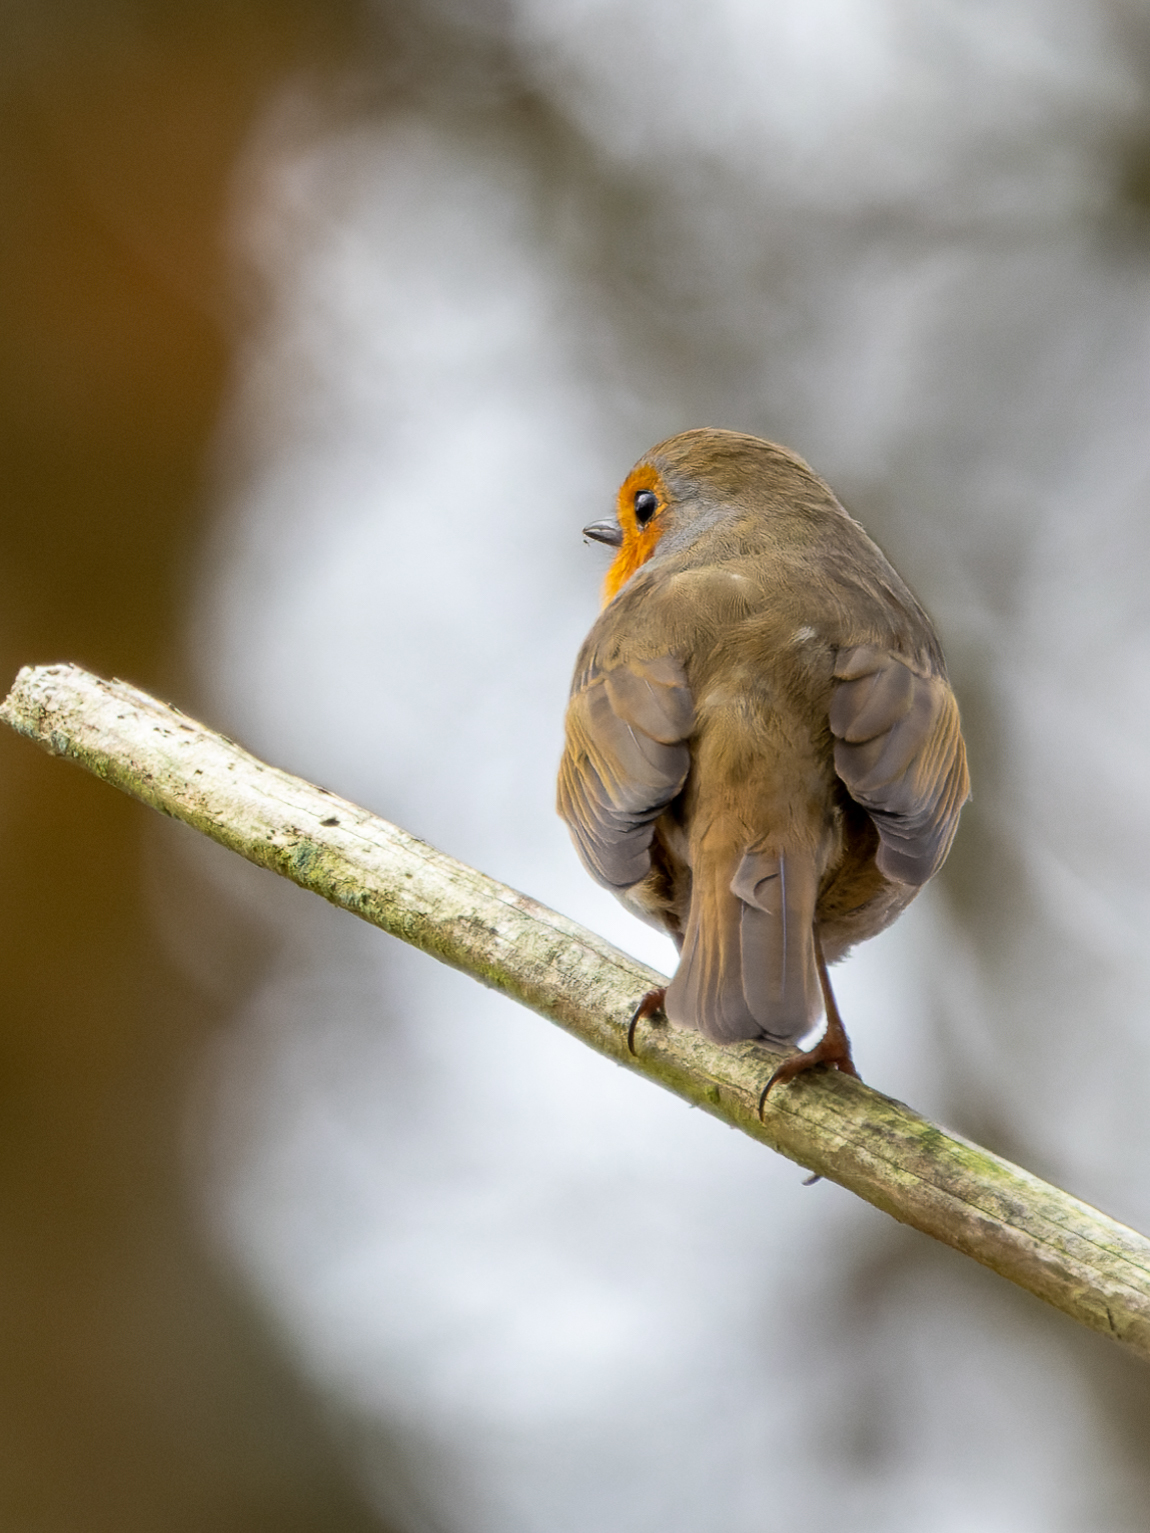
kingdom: Animalia
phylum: Chordata
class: Aves
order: Passeriformes
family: Muscicapidae
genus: Erithacus
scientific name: Erithacus rubecula
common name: European robin
